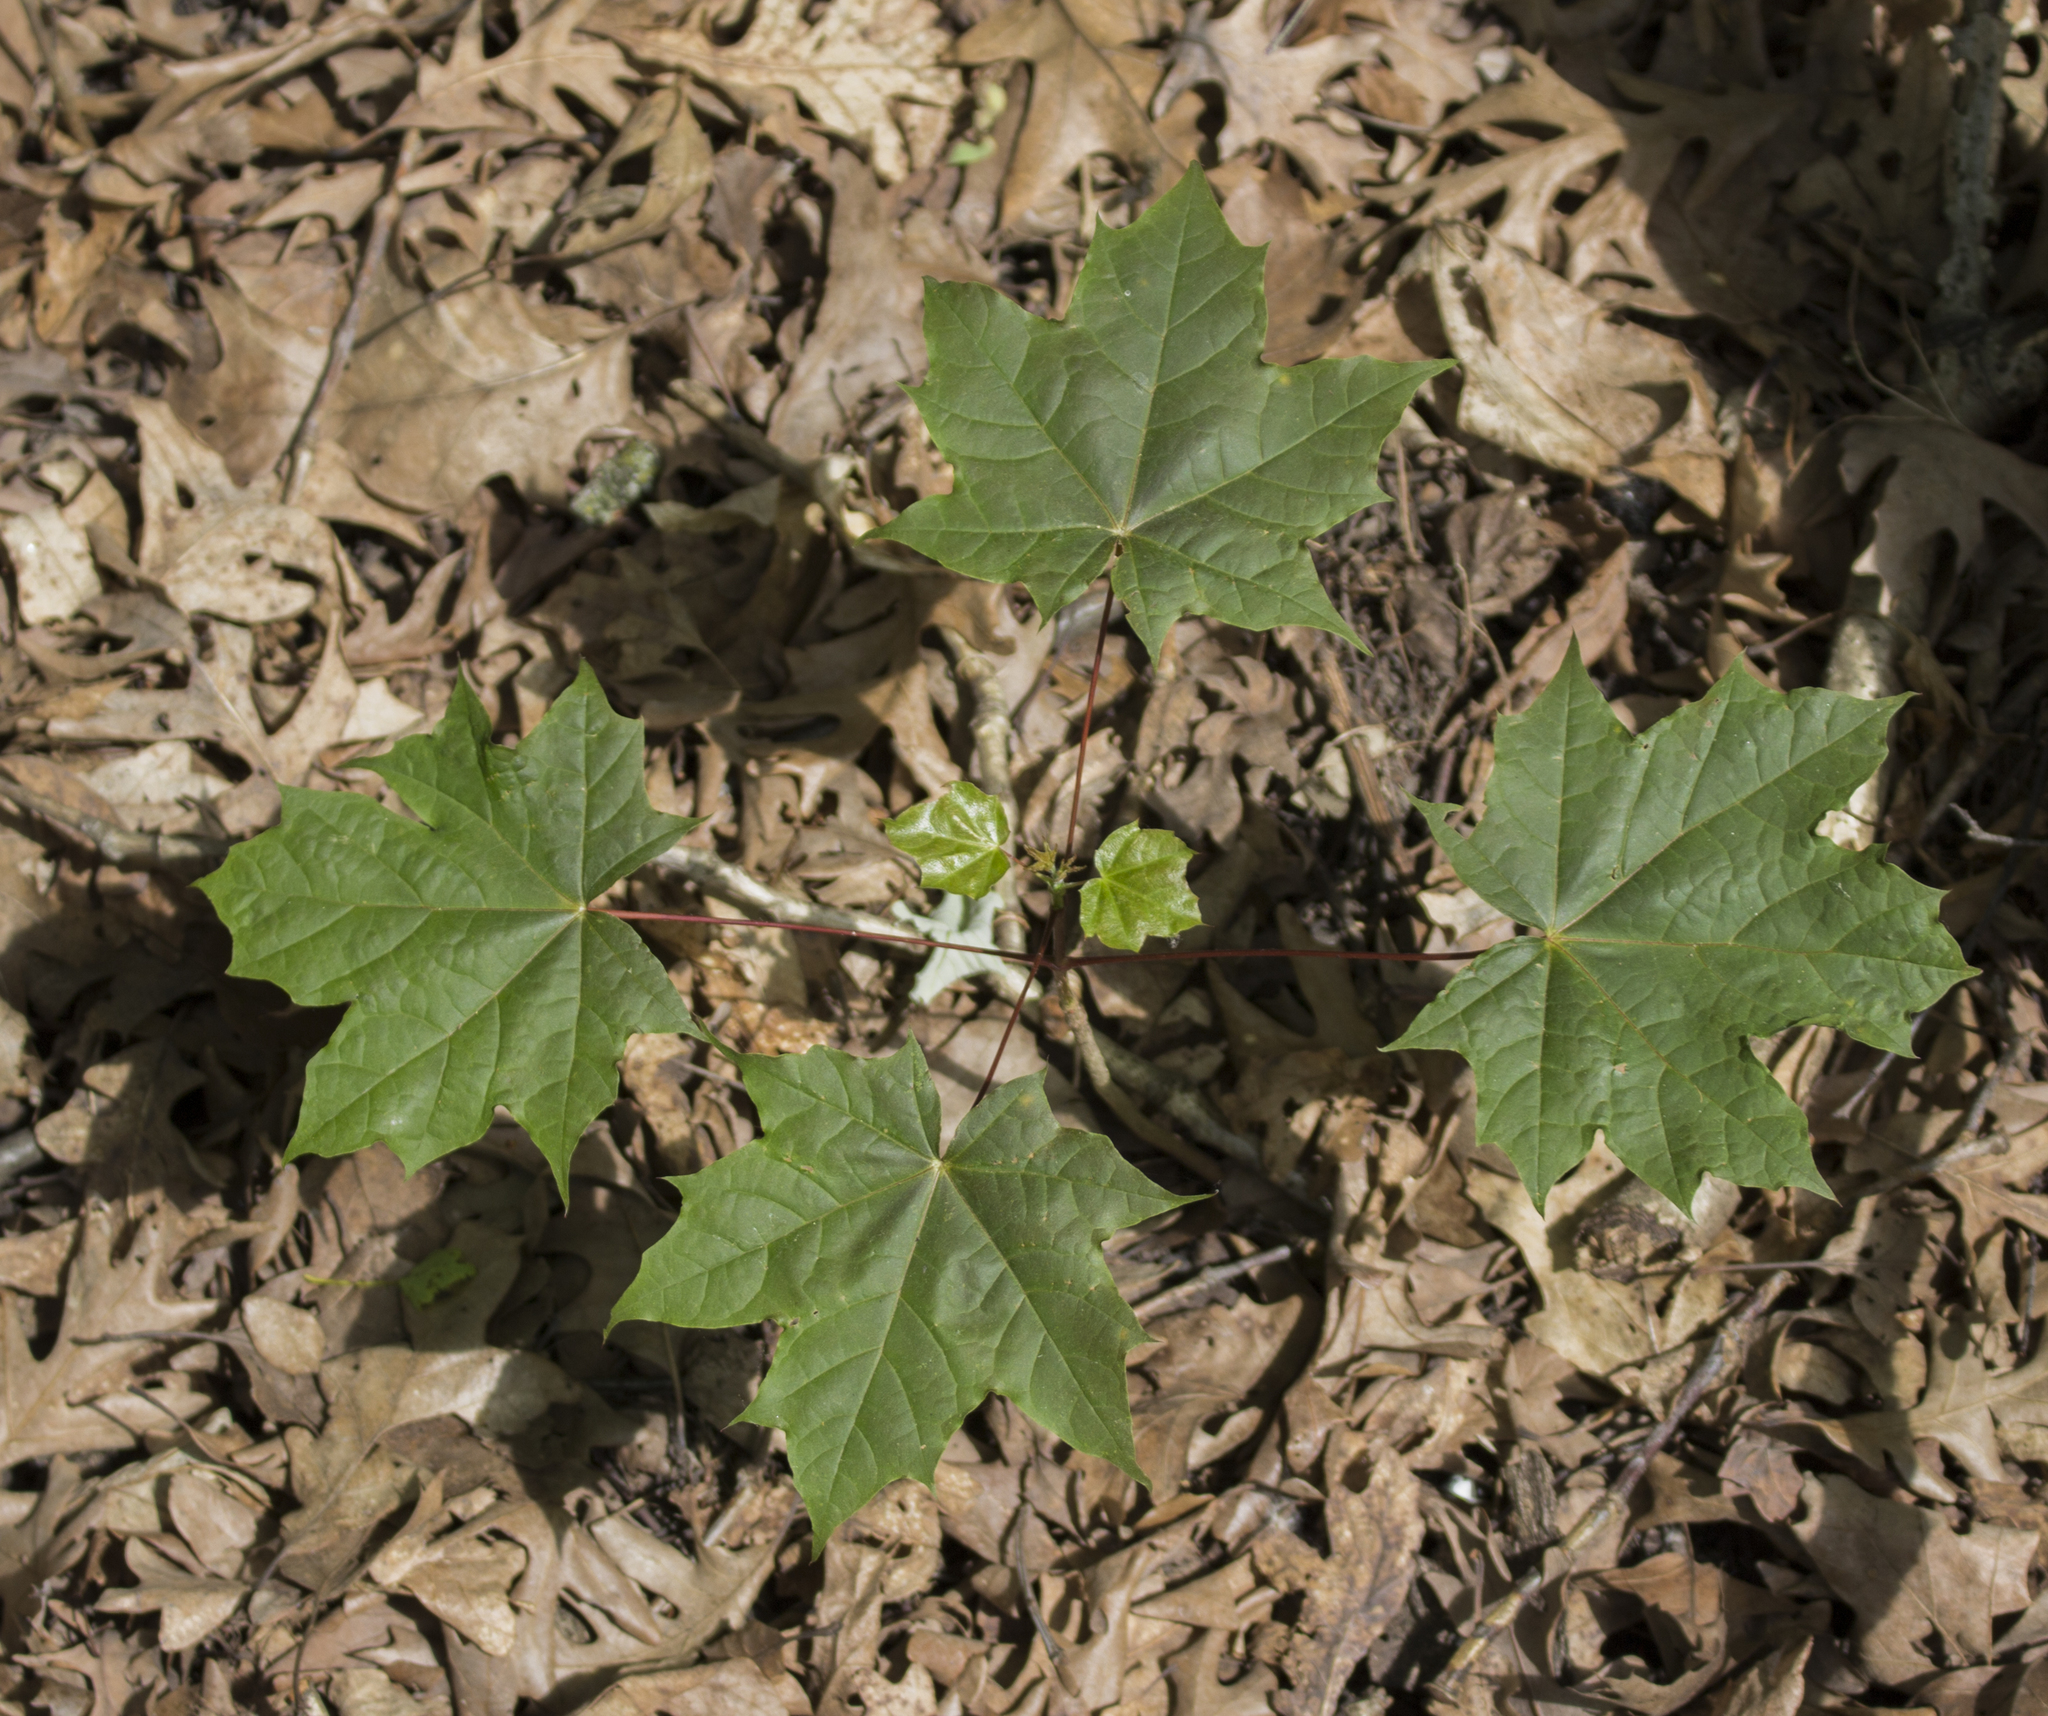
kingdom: Plantae
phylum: Tracheophyta
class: Magnoliopsida
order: Sapindales
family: Sapindaceae
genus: Acer
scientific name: Acer saccharum
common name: Sugar maple
